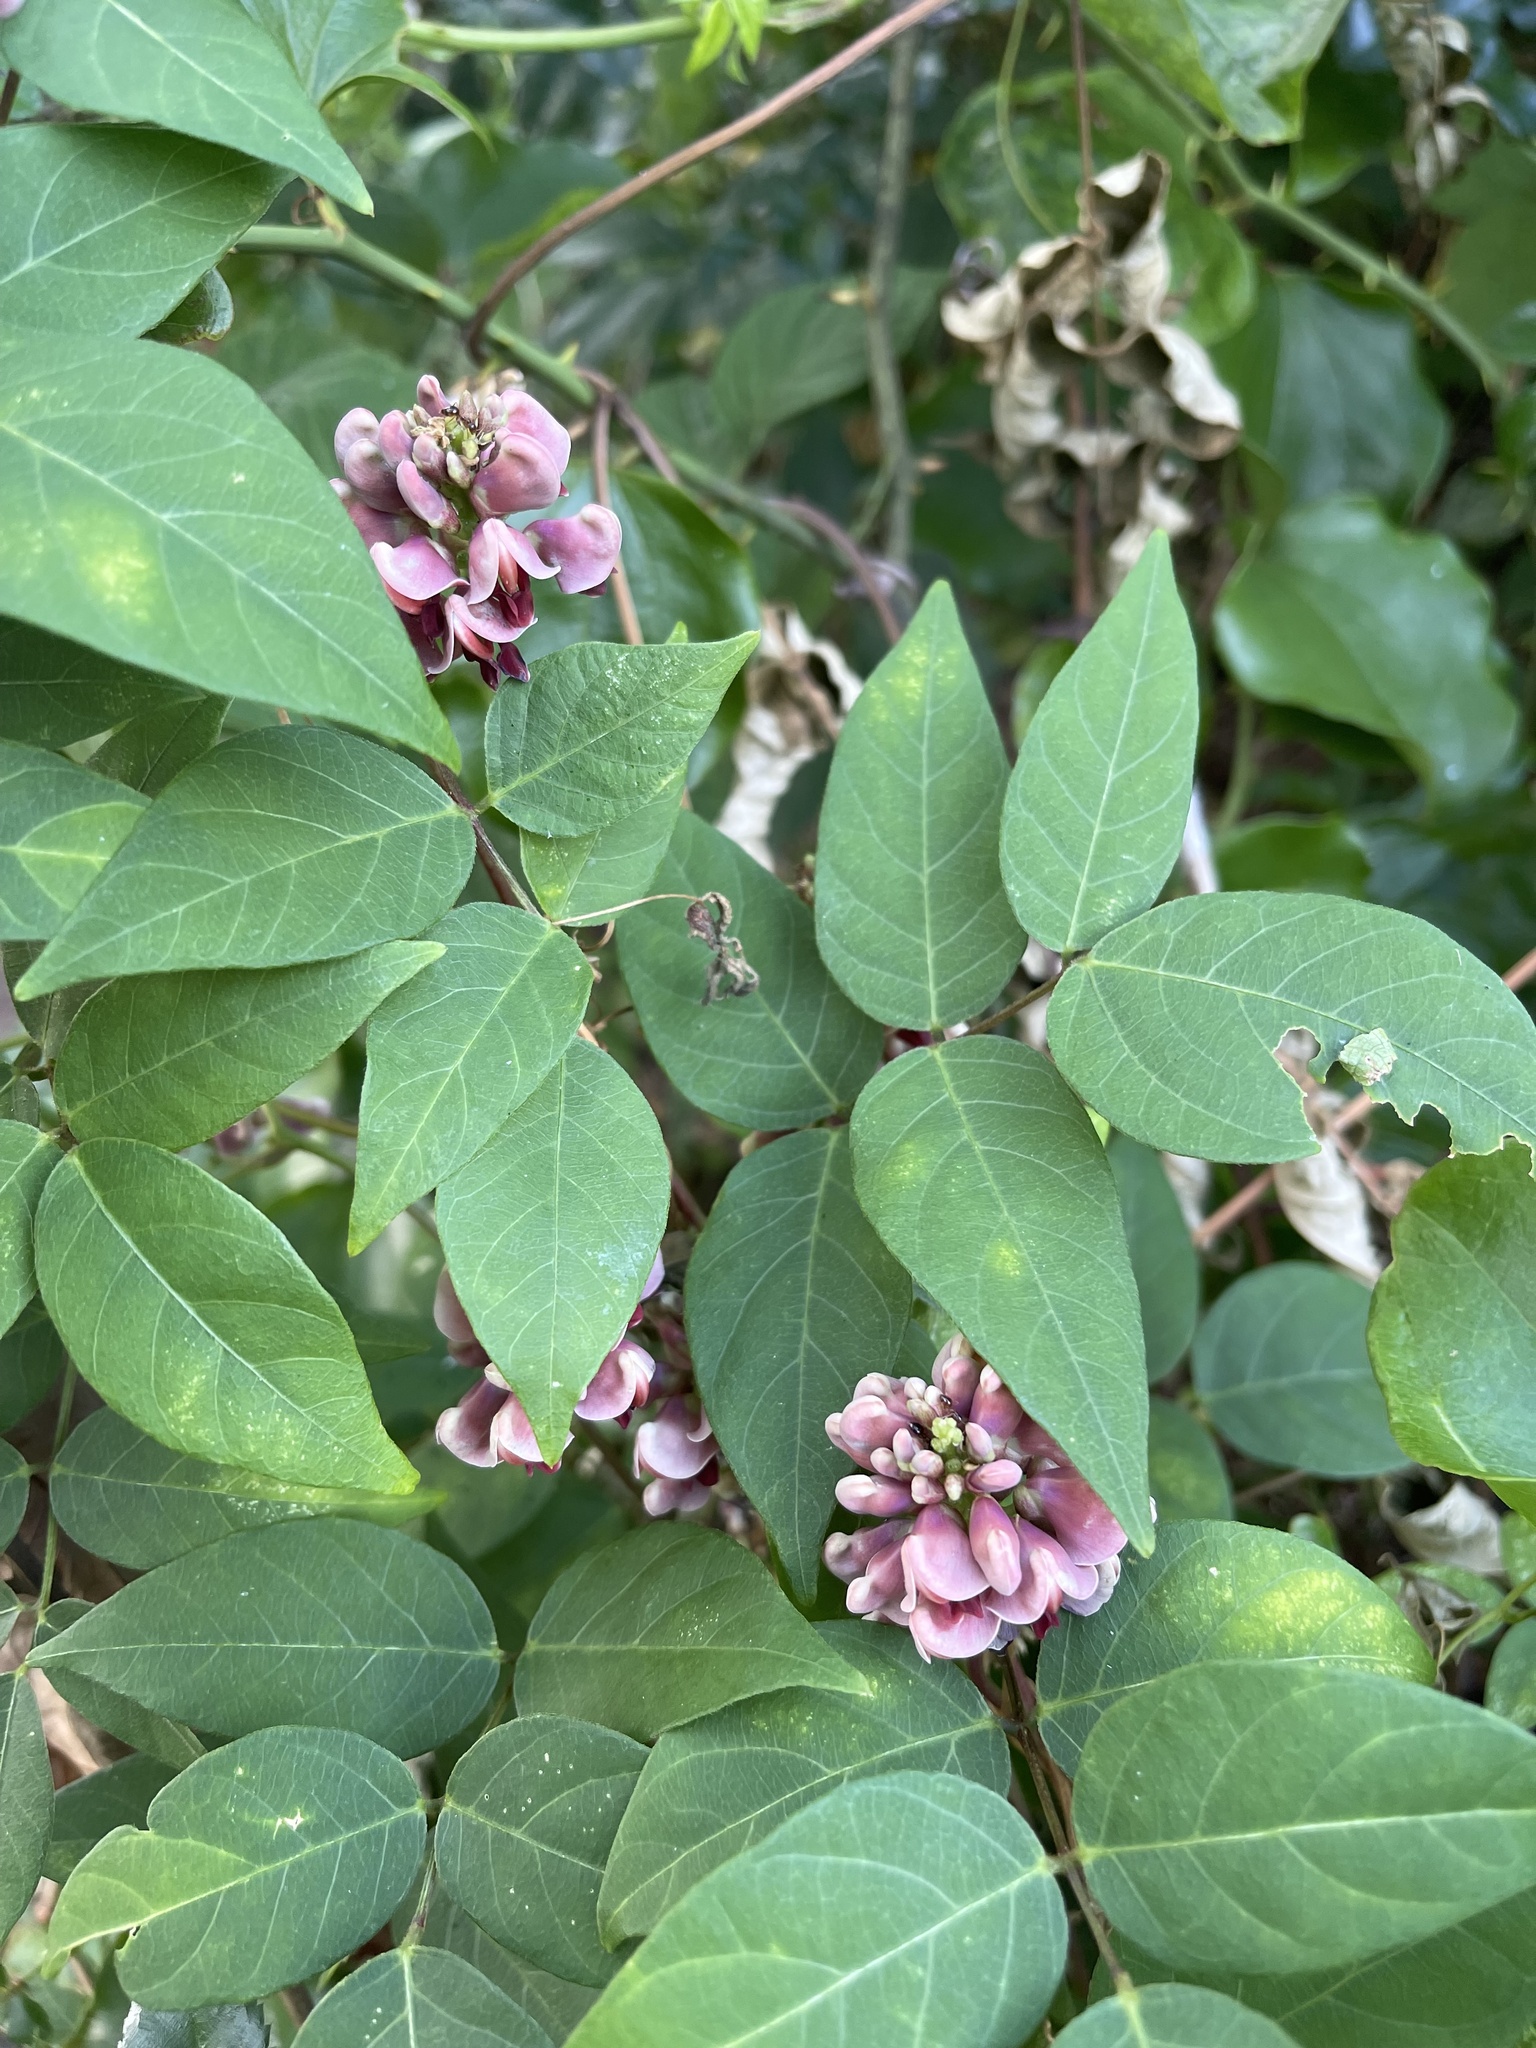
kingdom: Plantae
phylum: Tracheophyta
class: Magnoliopsida
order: Fabales
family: Fabaceae
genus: Apios
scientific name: Apios americana
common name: American potato-bean
